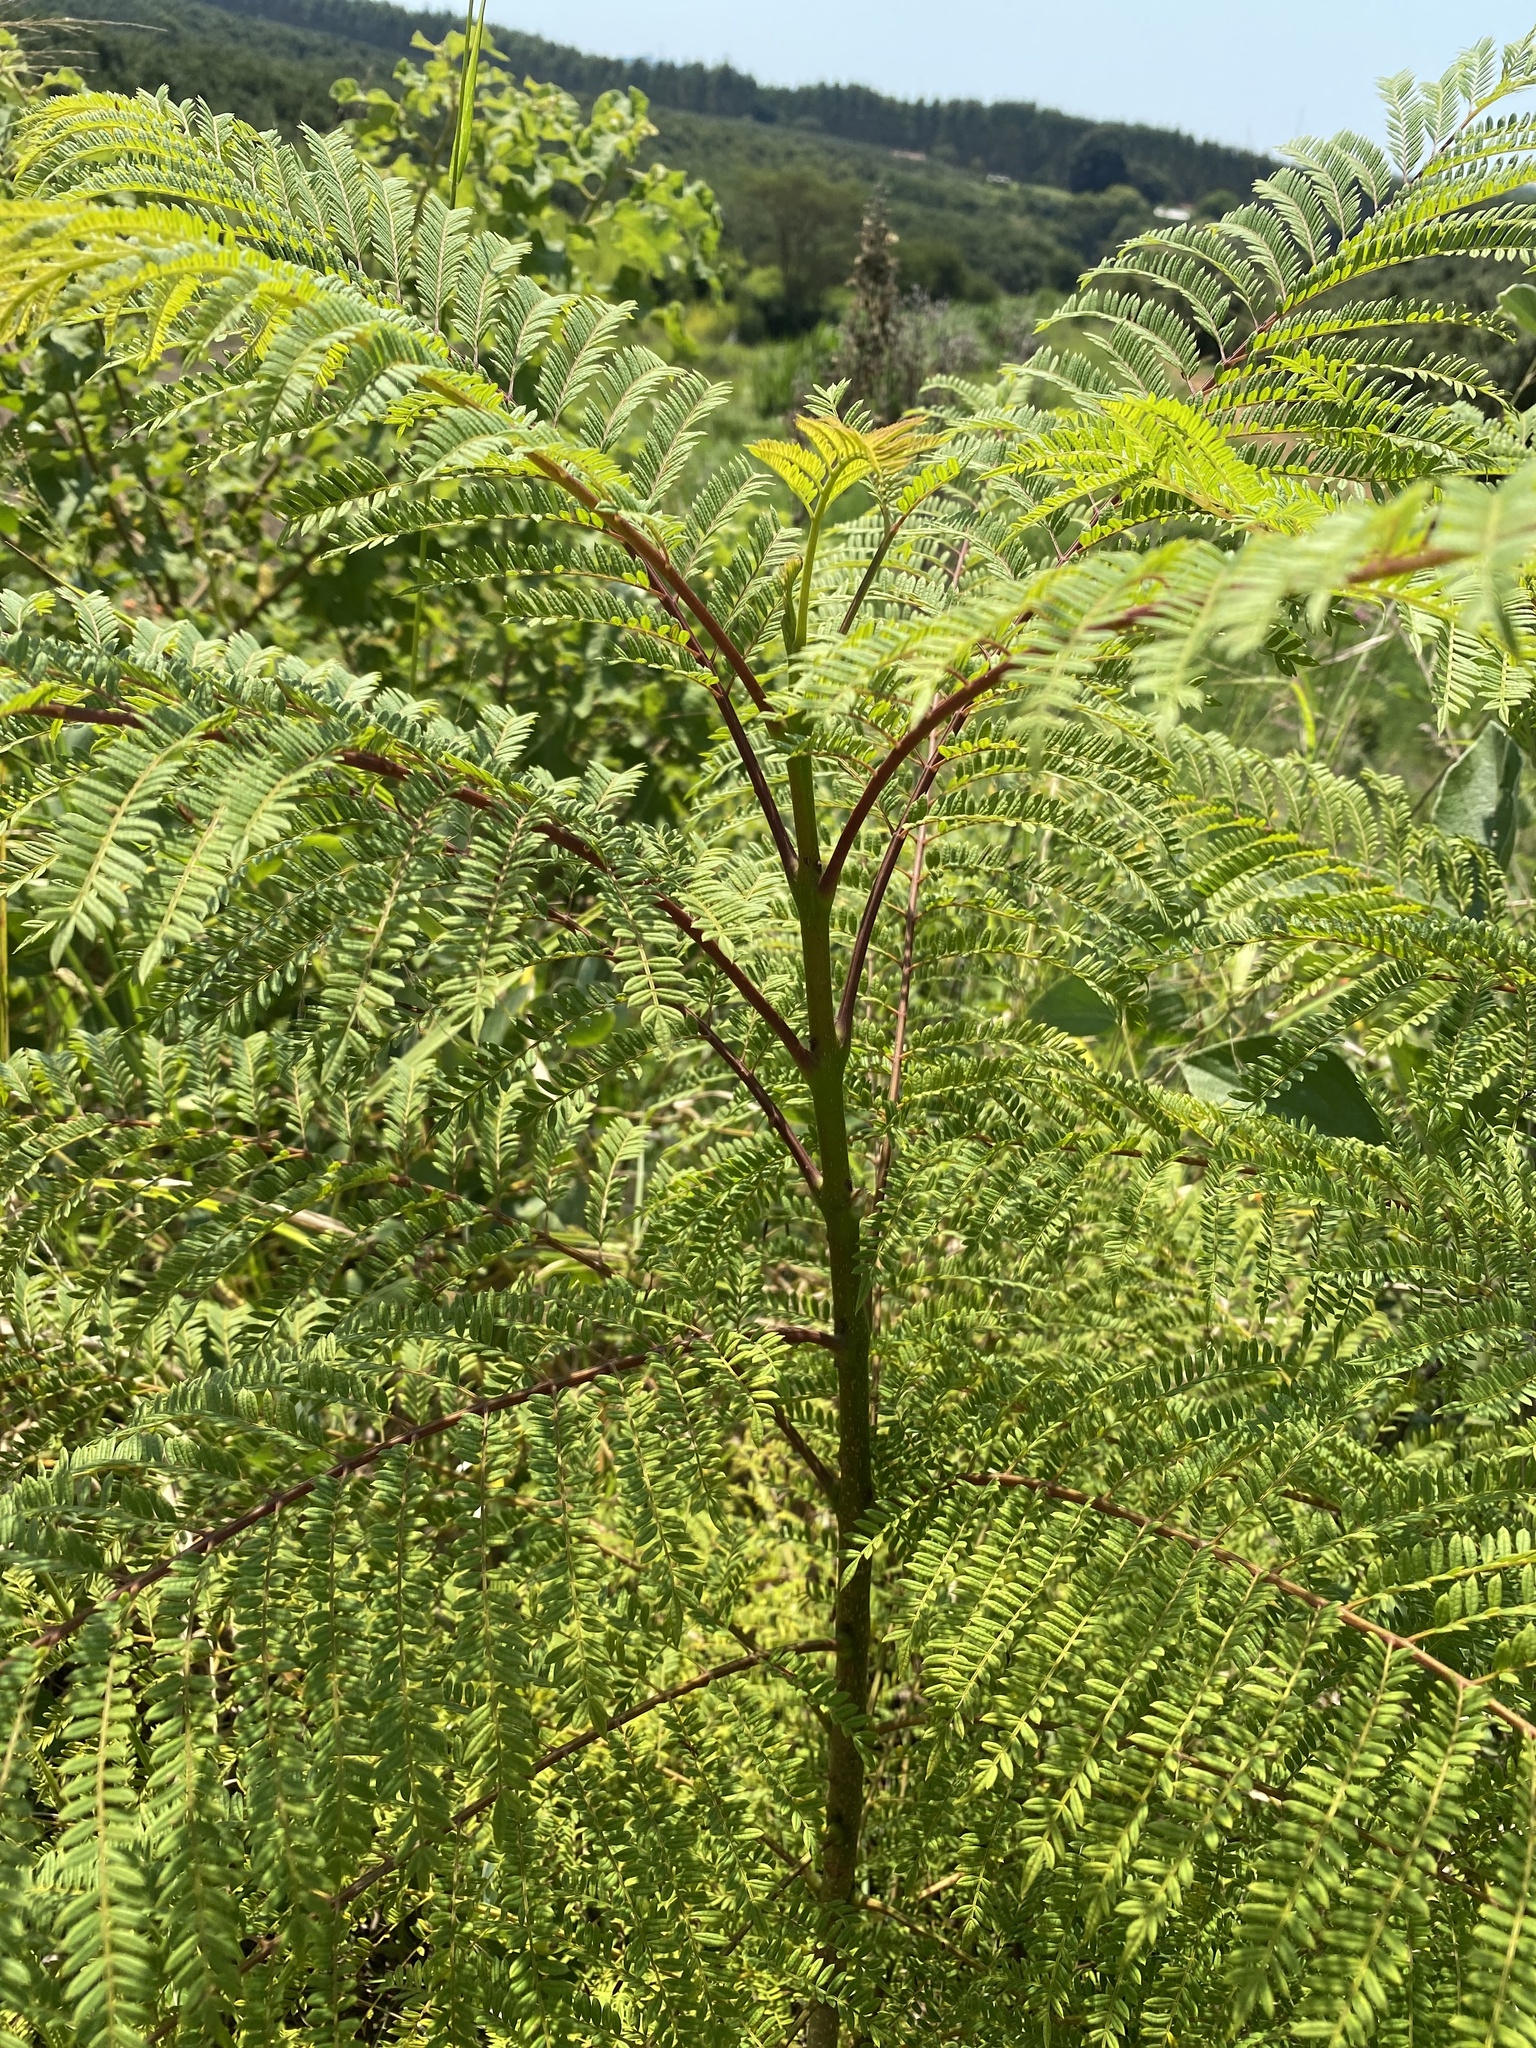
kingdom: Plantae
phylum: Tracheophyta
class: Magnoliopsida
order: Lamiales
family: Bignoniaceae
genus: Jacaranda
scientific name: Jacaranda mimosifolia
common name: Black poui
